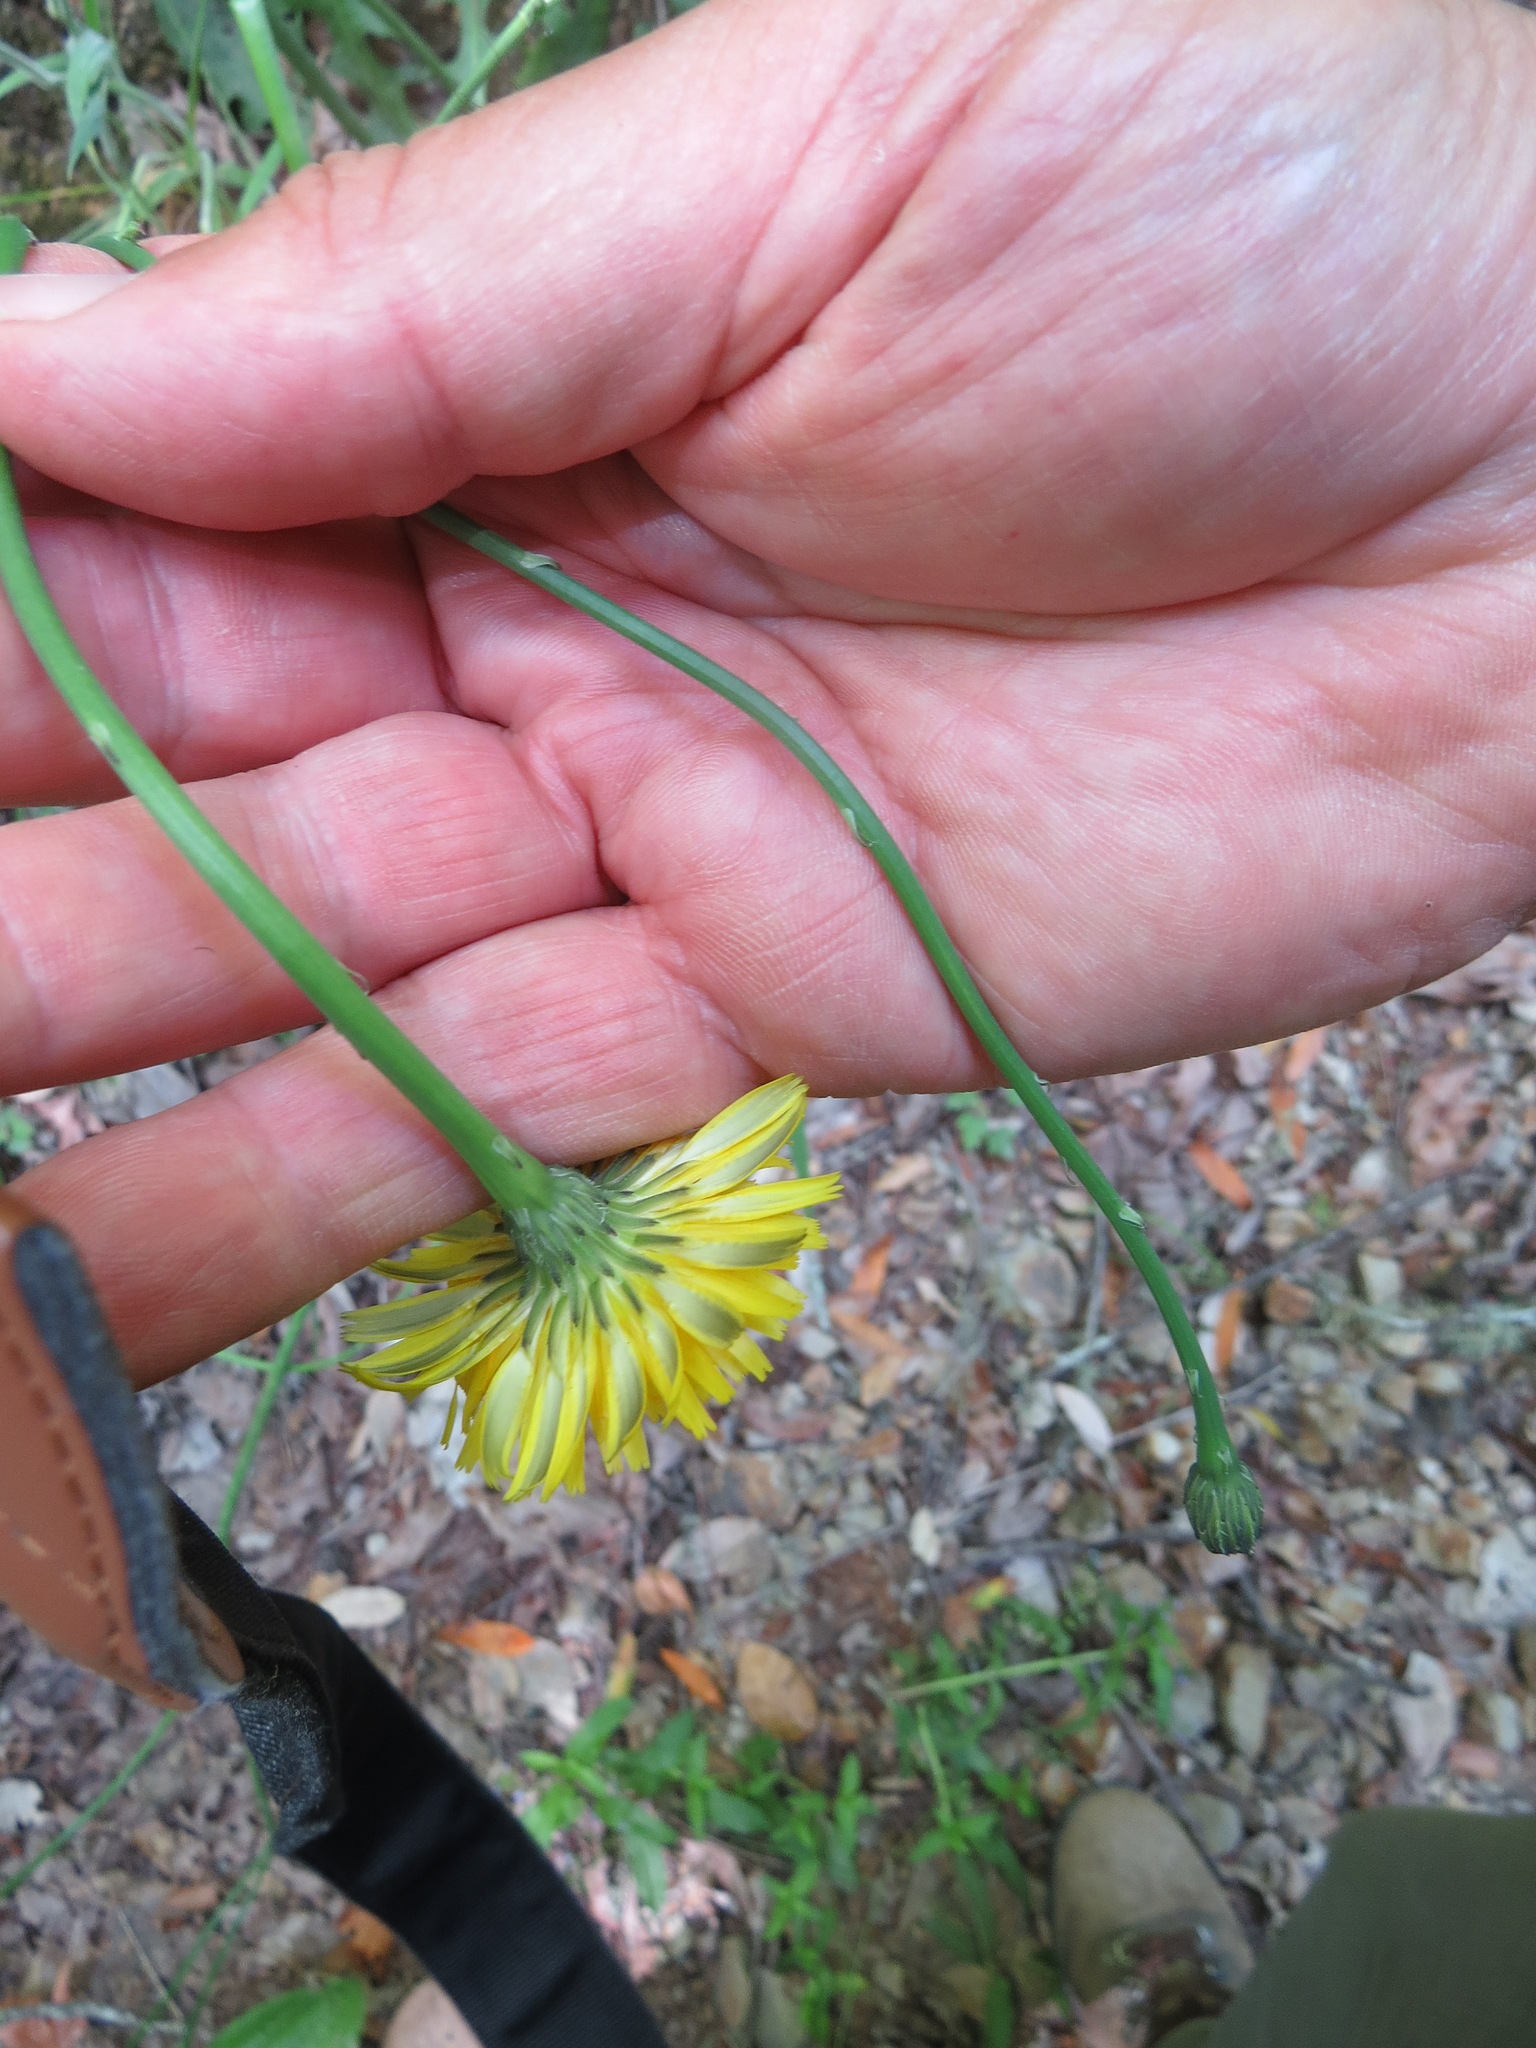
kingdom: Plantae
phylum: Tracheophyta
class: Magnoliopsida
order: Asterales
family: Asteraceae
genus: Hypochaeris
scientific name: Hypochaeris radicata
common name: Flatweed
